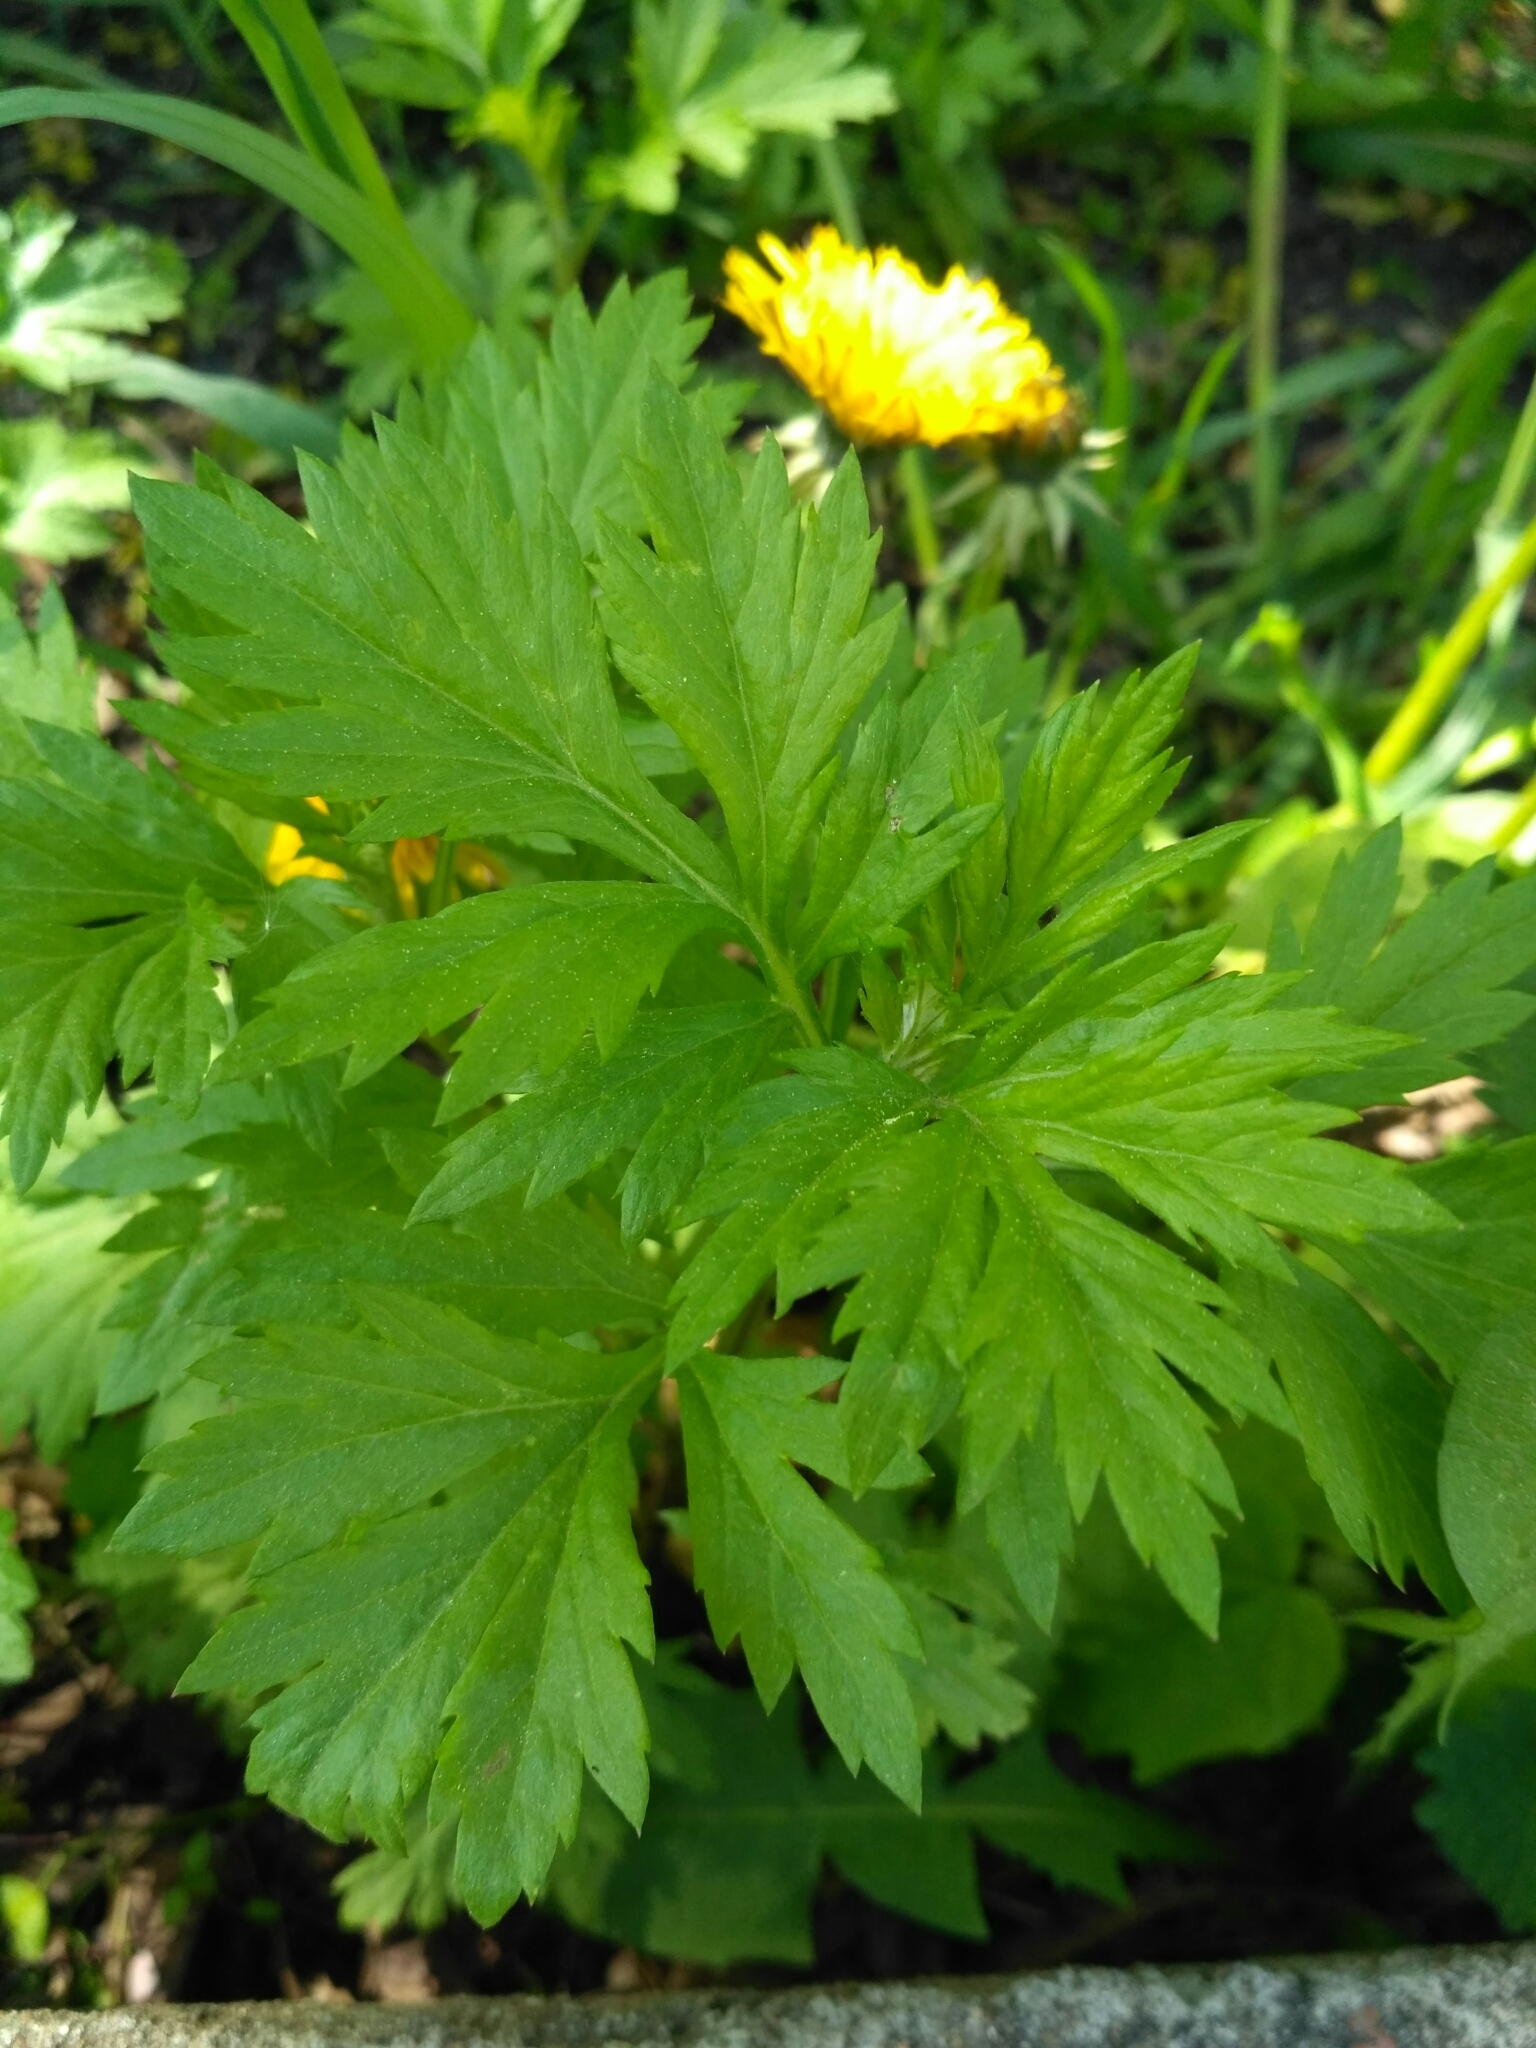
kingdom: Plantae
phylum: Tracheophyta
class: Magnoliopsida
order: Asterales
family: Asteraceae
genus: Artemisia
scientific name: Artemisia vulgaris
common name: Mugwort
